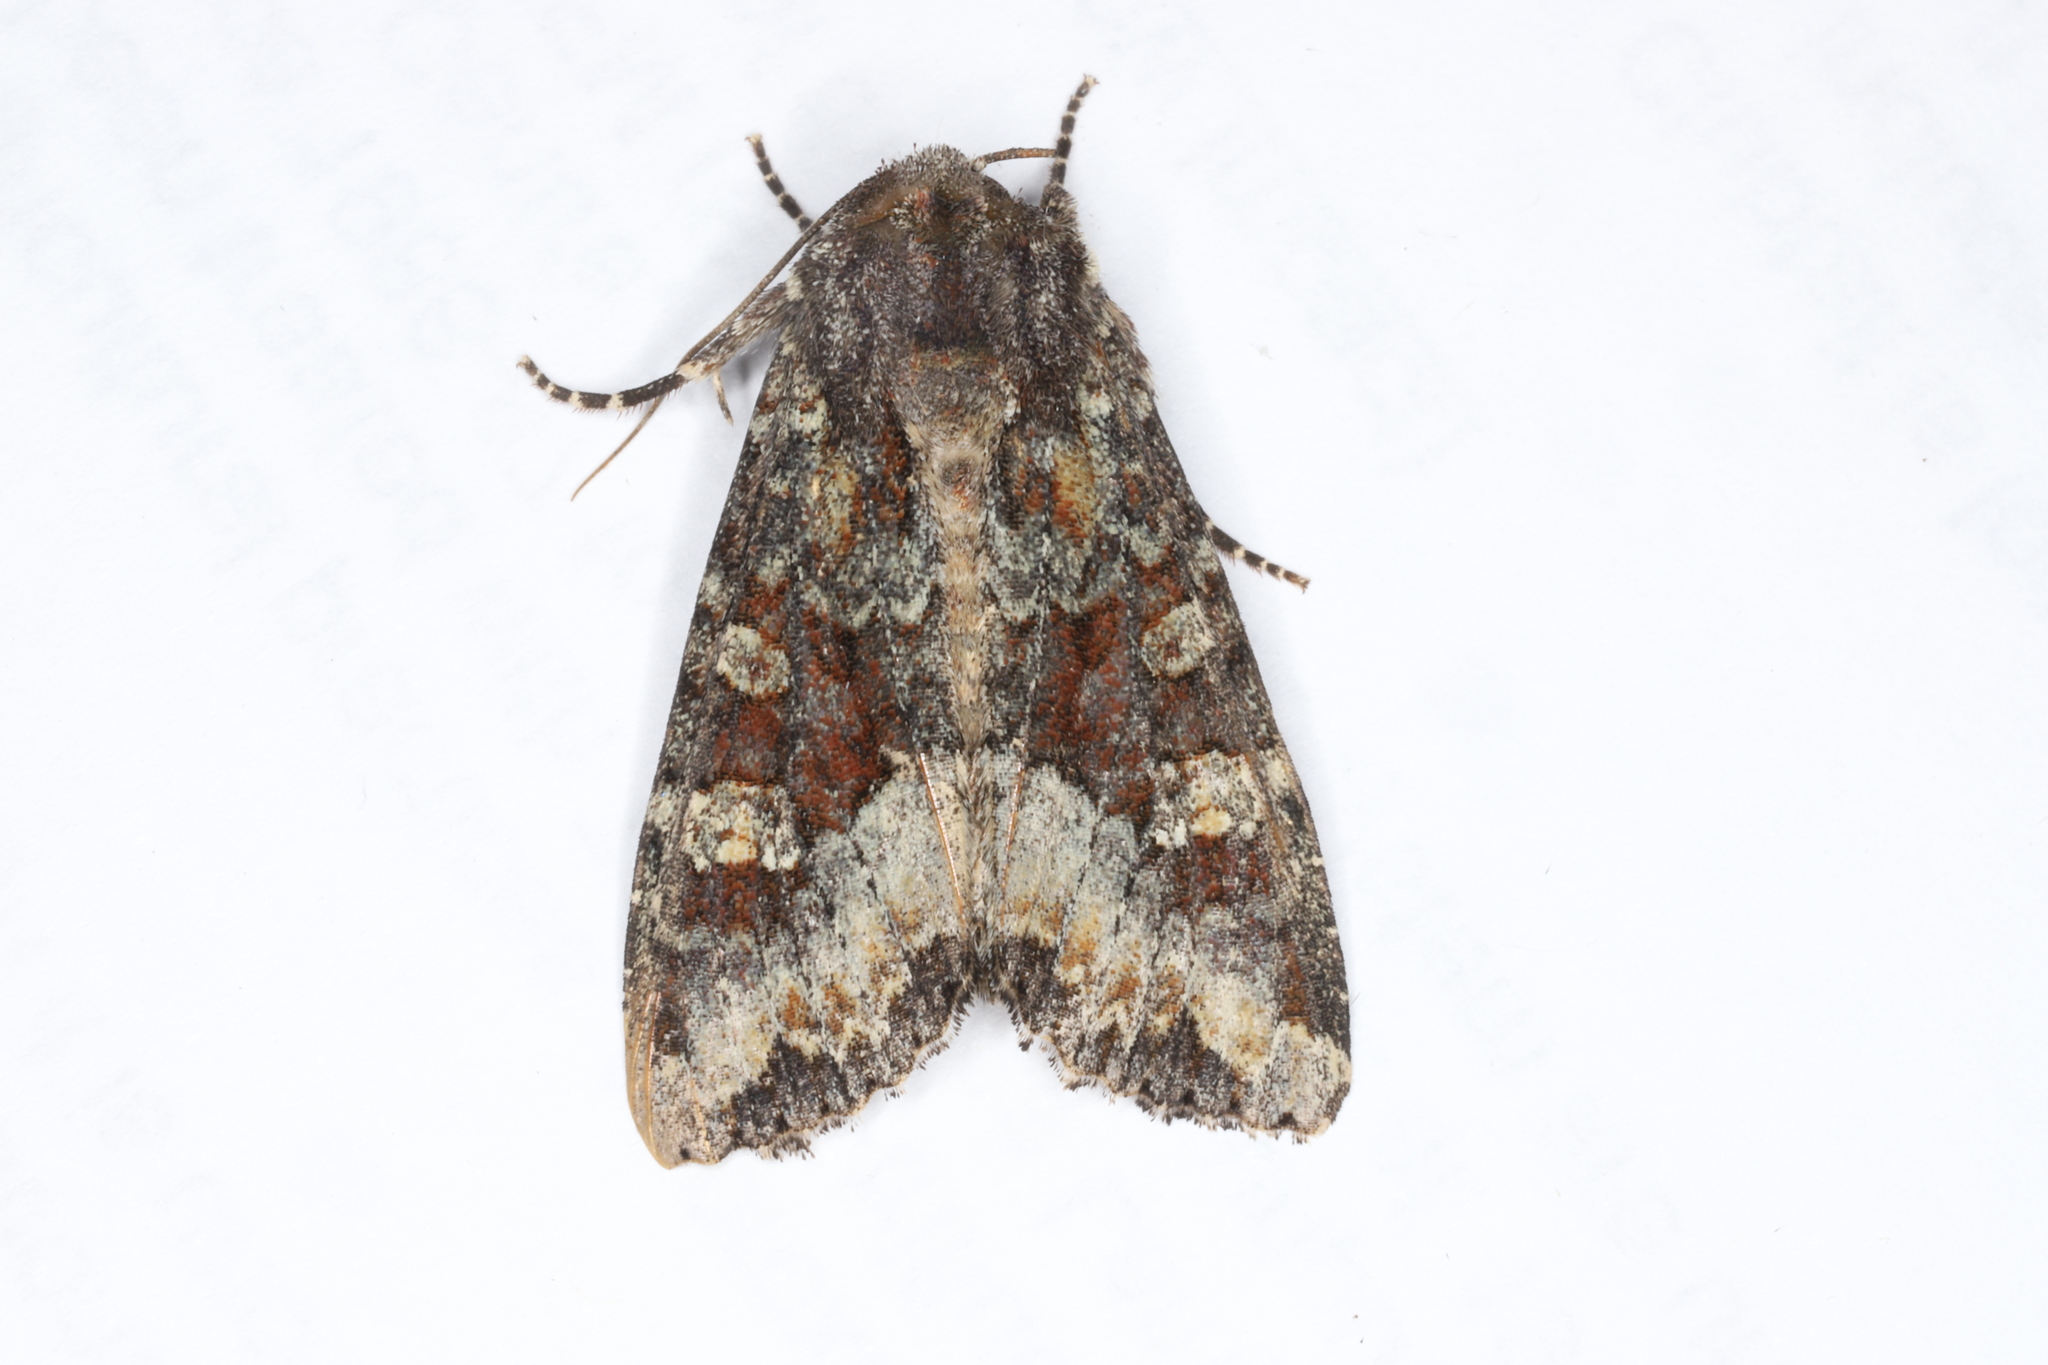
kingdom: Animalia
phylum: Arthropoda
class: Insecta
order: Lepidoptera
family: Noctuidae
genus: Apamea
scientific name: Apamea amputatrix
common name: Yellow-headed cutworm moth
